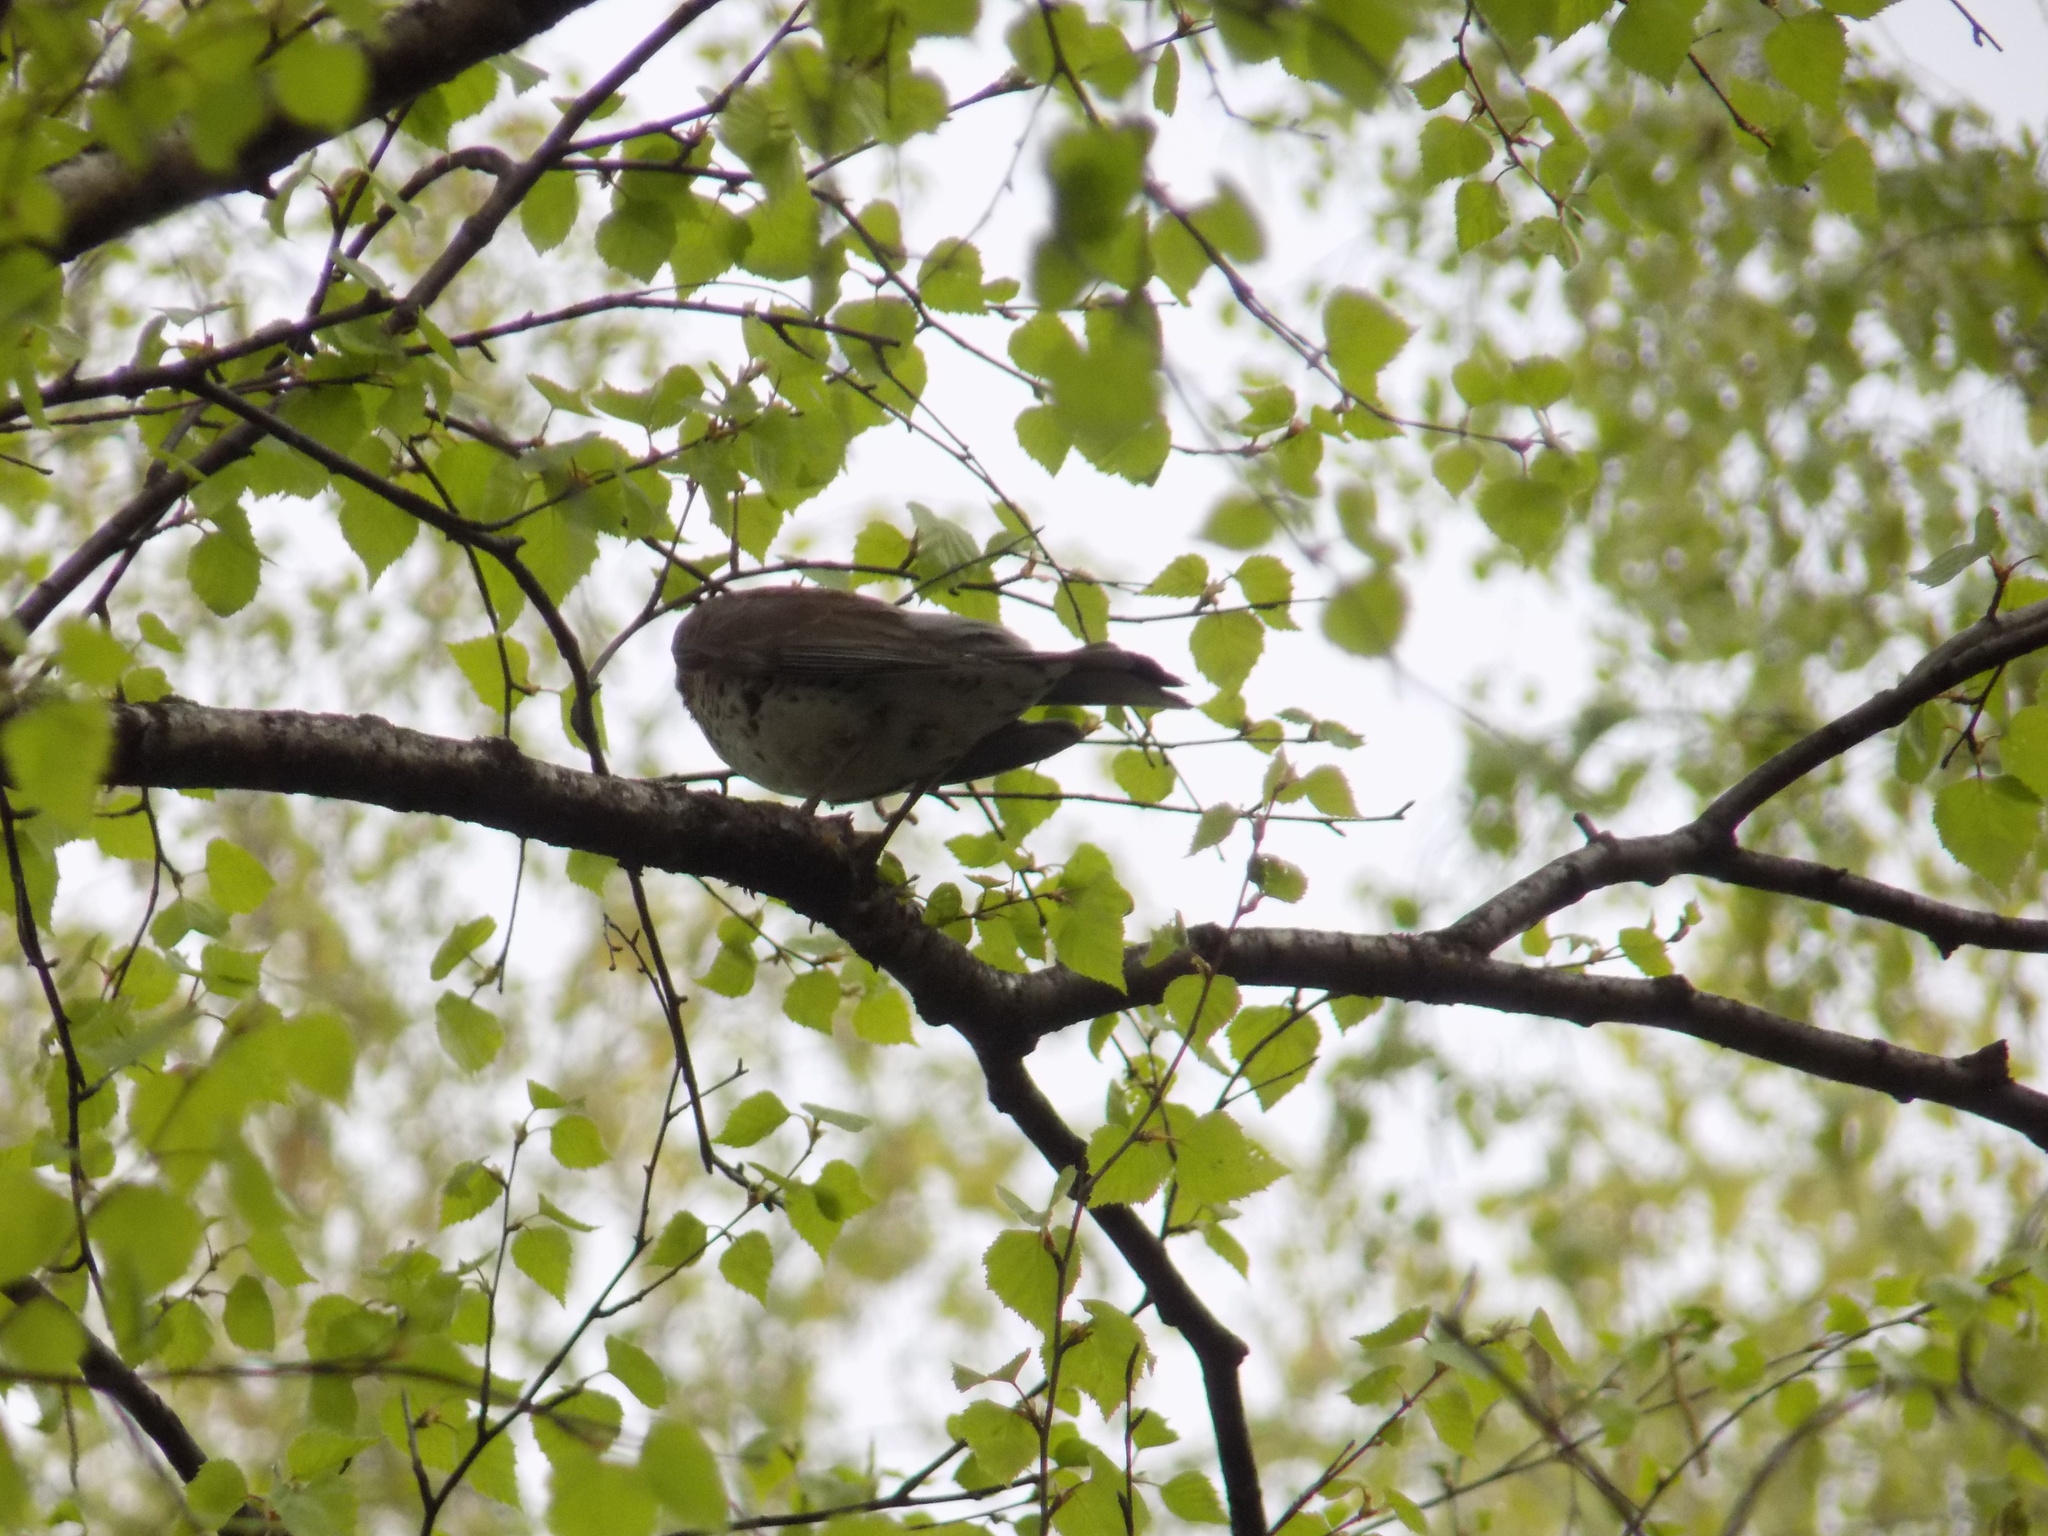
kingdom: Animalia
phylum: Chordata
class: Aves
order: Passeriformes
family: Turdidae
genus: Turdus
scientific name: Turdus pilaris
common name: Fieldfare
